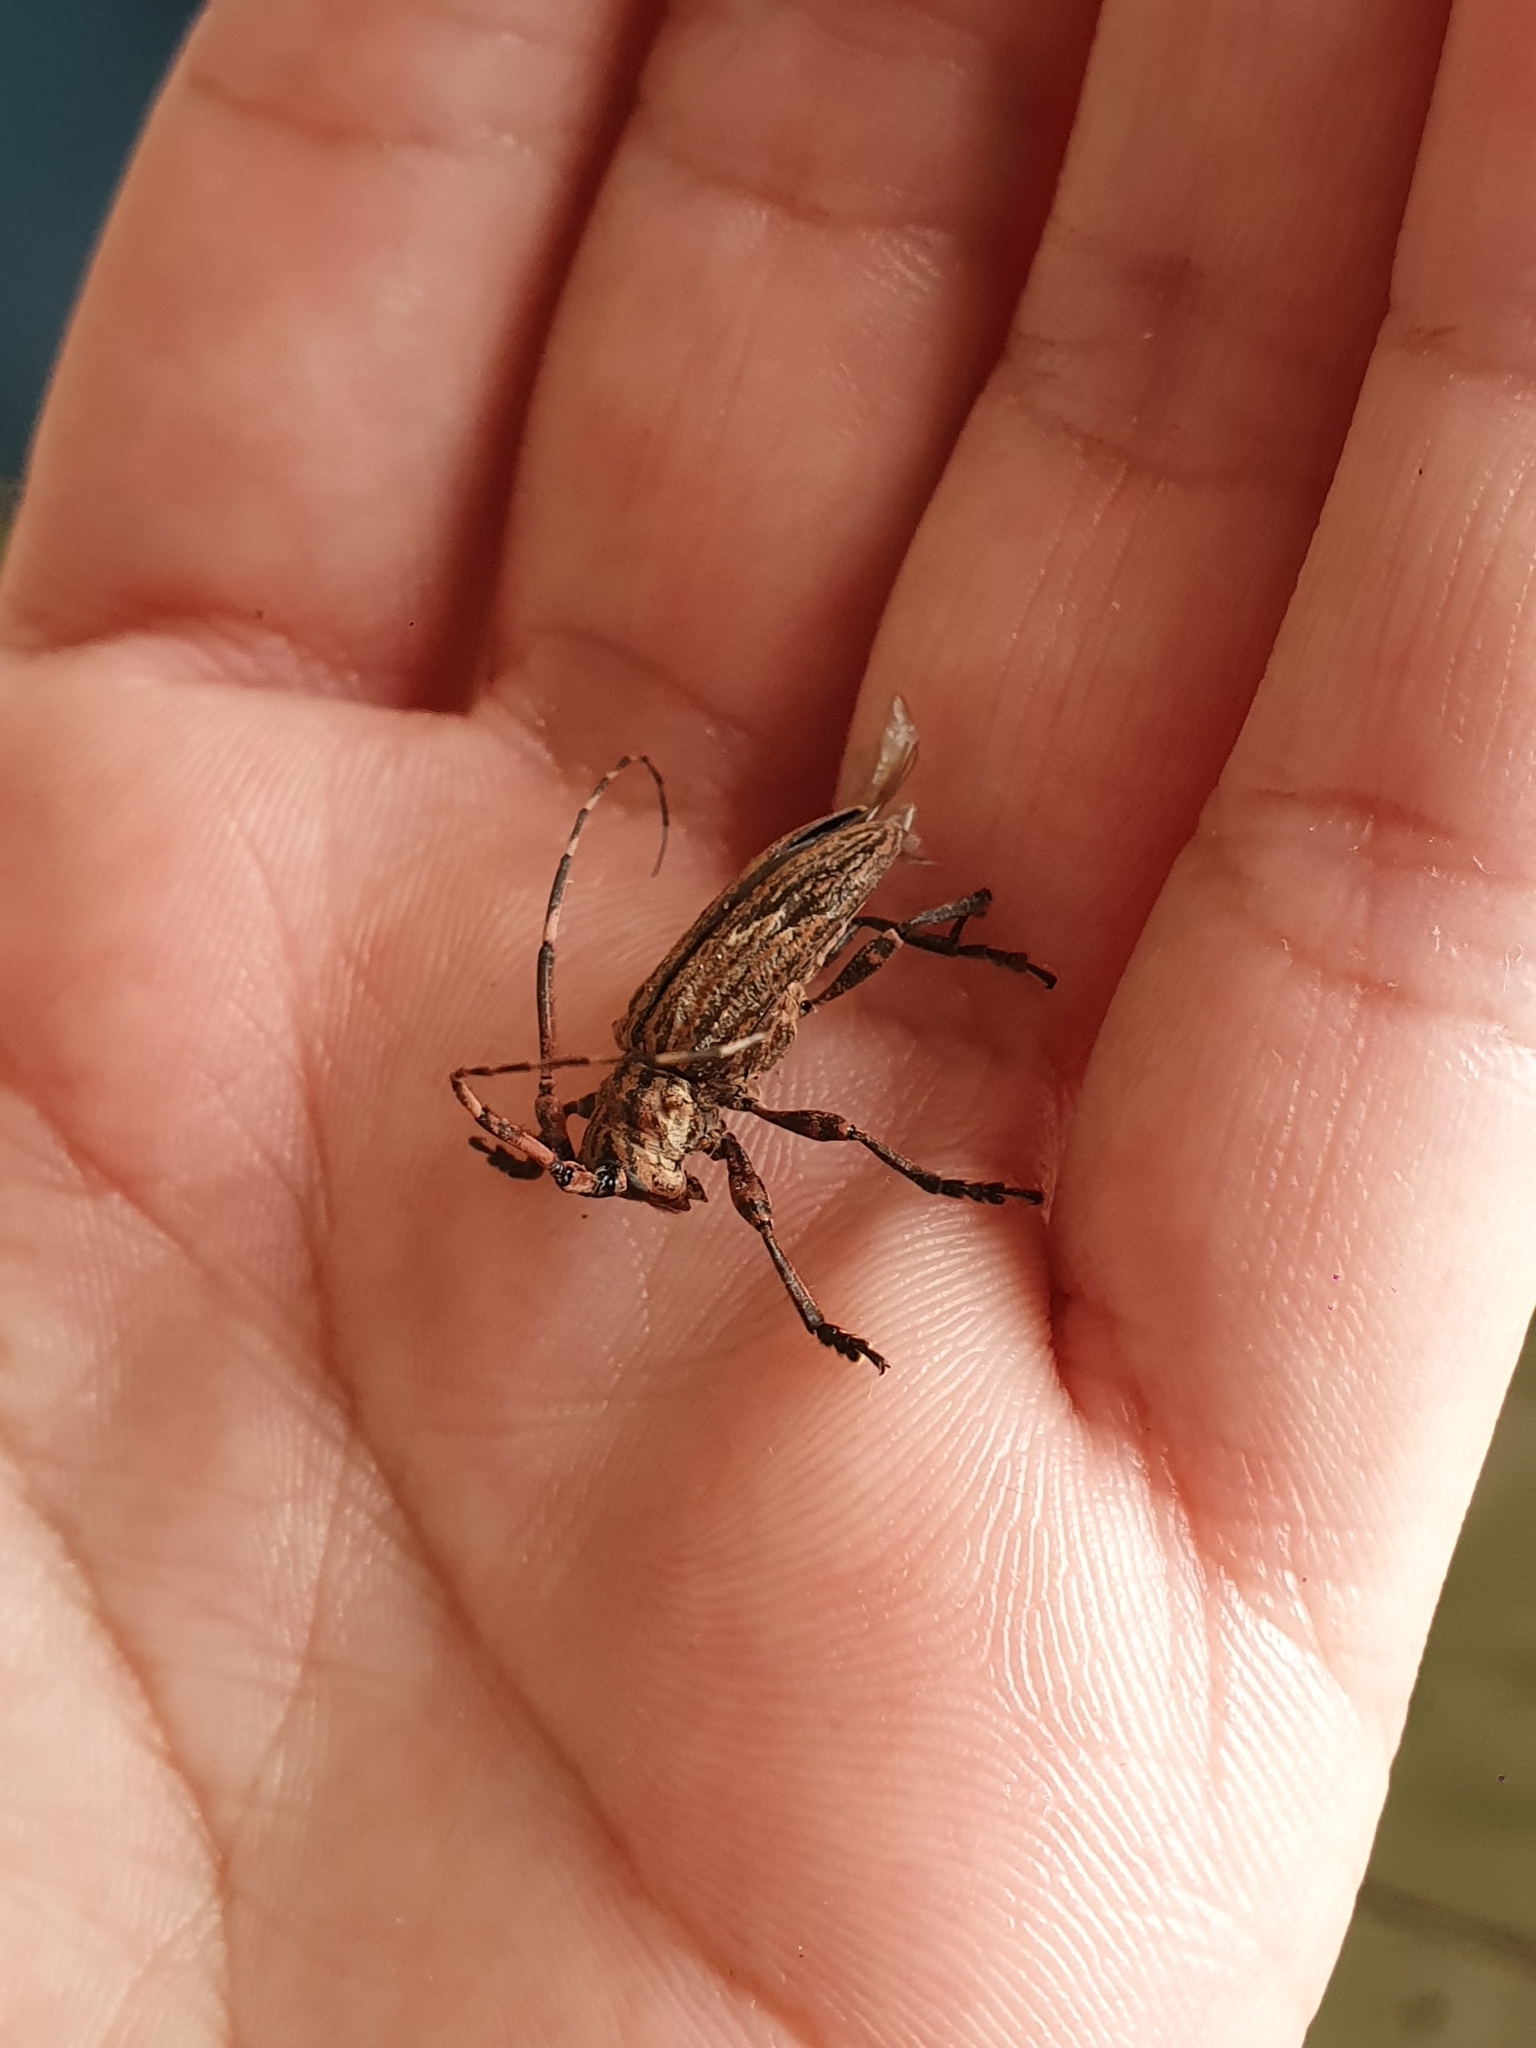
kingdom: Animalia
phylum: Arthropoda
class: Insecta
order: Coleoptera
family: Cerambycidae
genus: Hesychotypa
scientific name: Hesychotypa subfasciata
